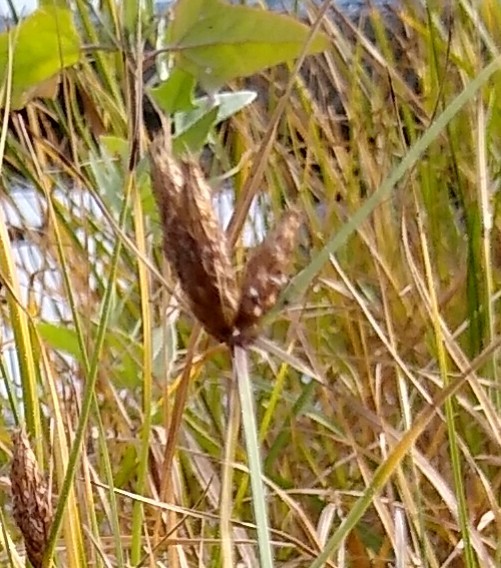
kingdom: Plantae
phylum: Tracheophyta
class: Liliopsida
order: Poales
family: Cyperaceae
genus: Bolboschoenus
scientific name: Bolboschoenus maritimus
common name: Sea club-rush
